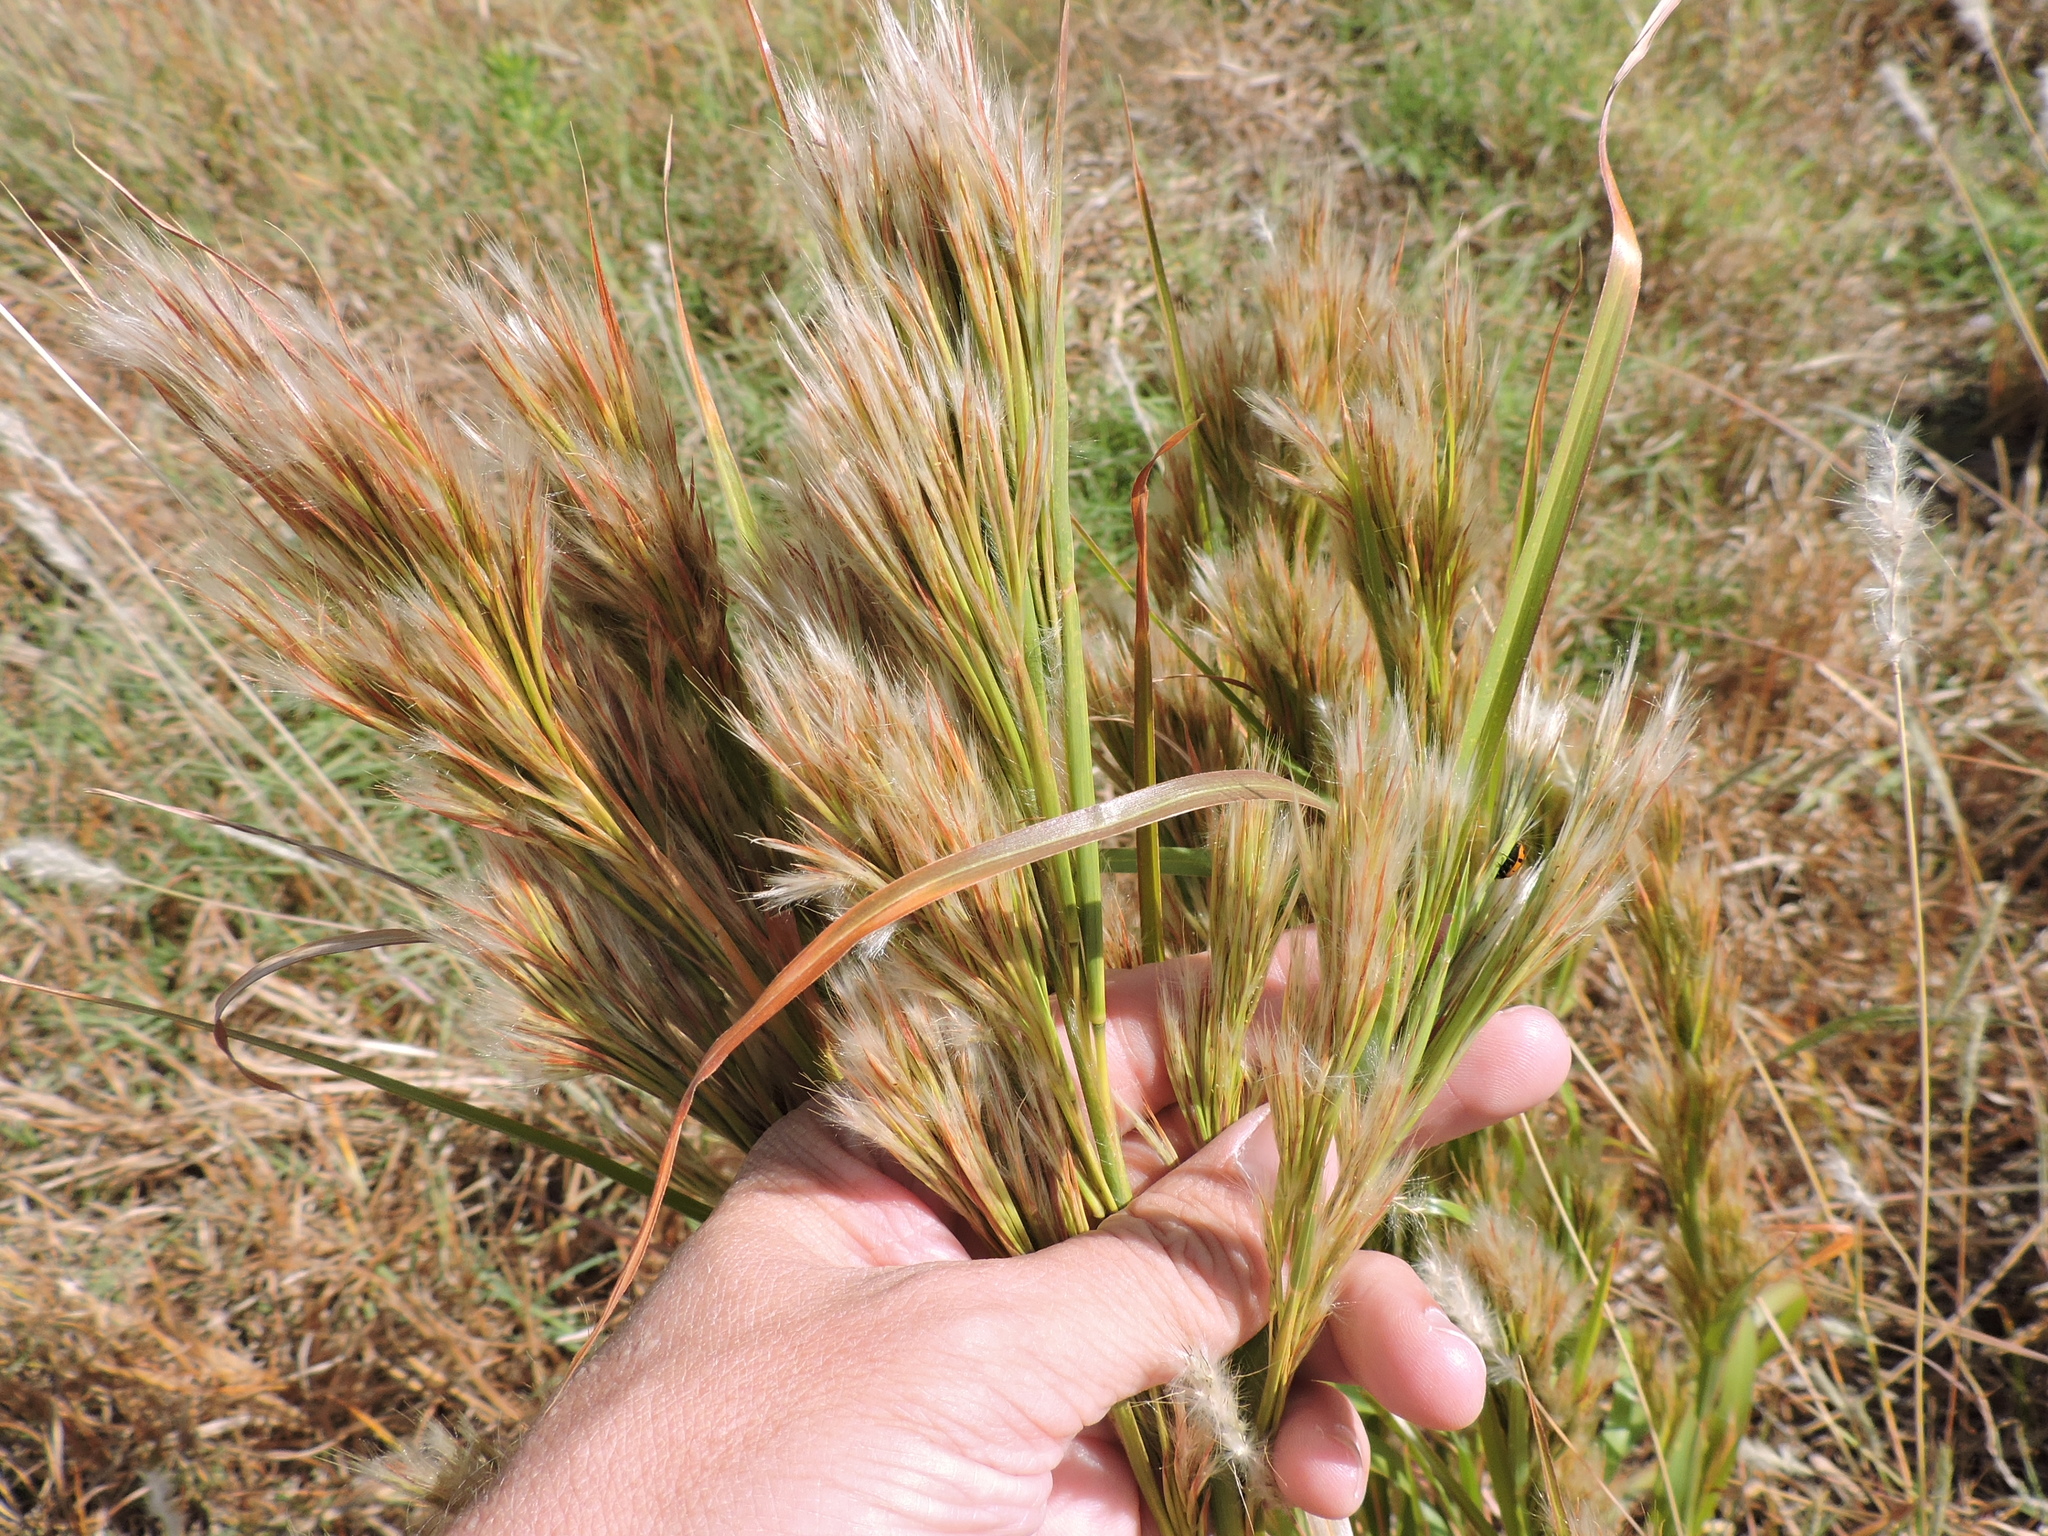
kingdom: Plantae
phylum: Tracheophyta
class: Liliopsida
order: Poales
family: Poaceae
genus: Andropogon
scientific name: Andropogon tenuispatheus
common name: Bushy bluestem
